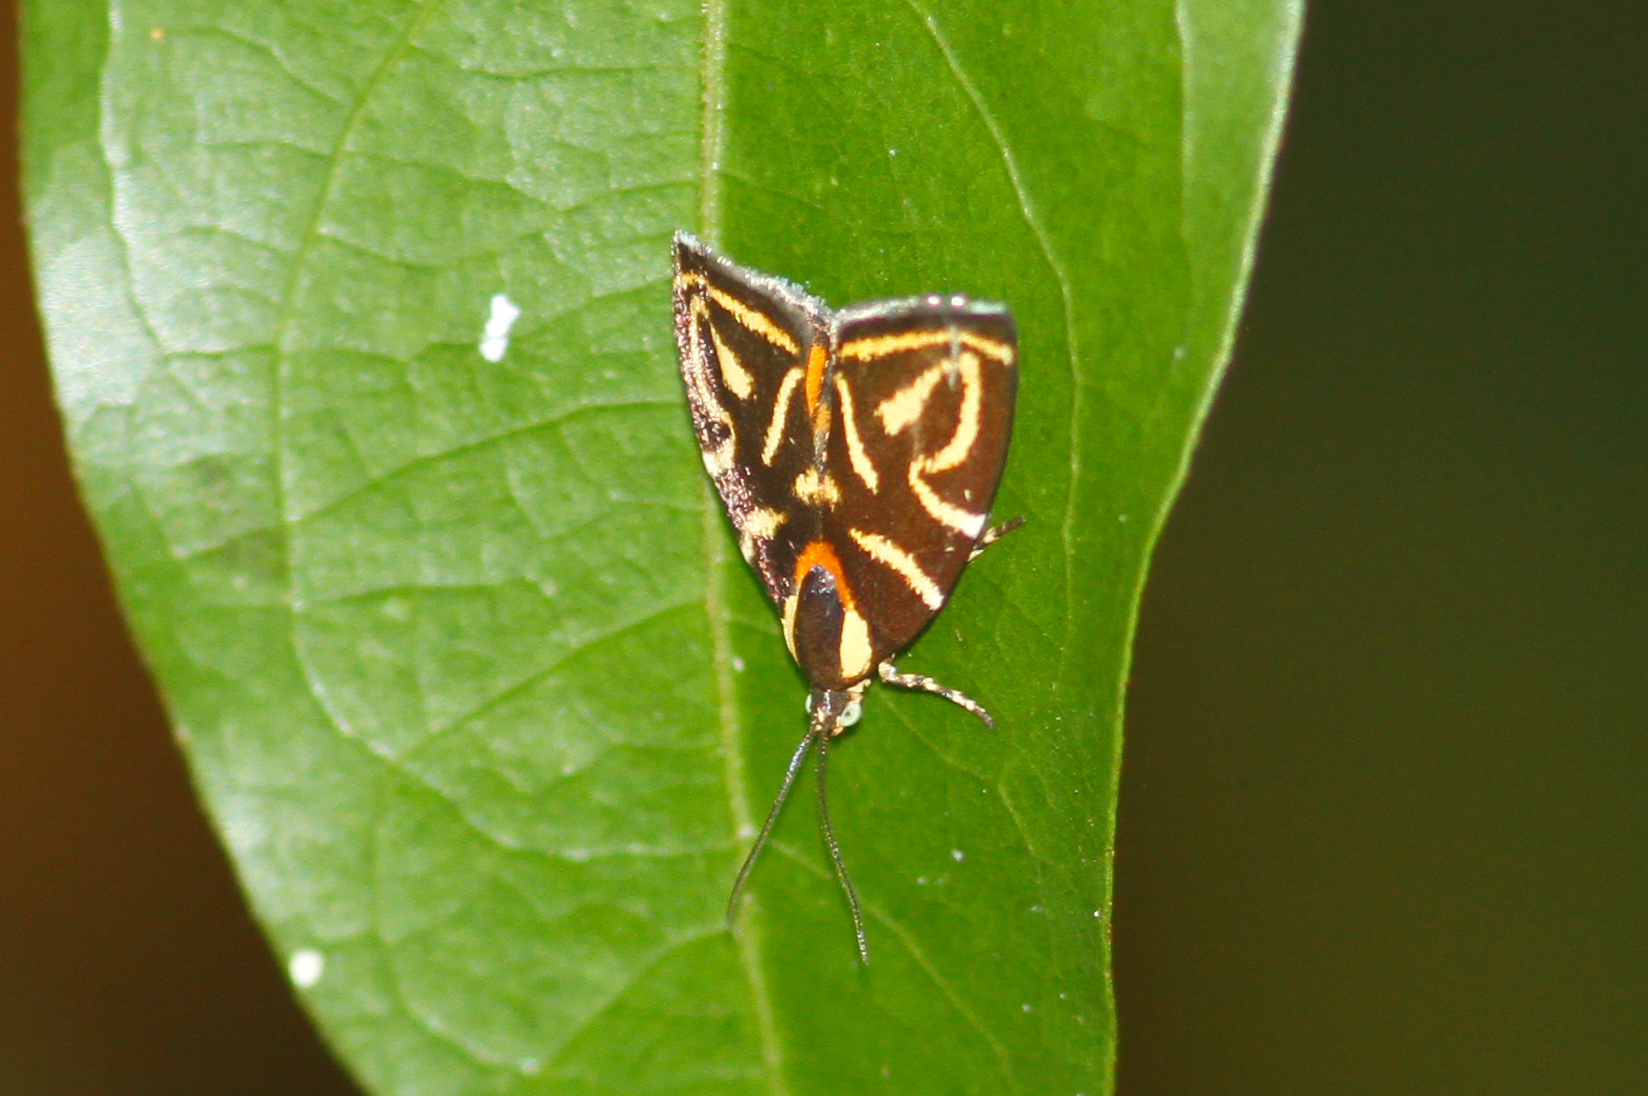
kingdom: Animalia
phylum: Arthropoda
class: Insecta
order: Lepidoptera
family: Choreutidae
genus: Anthophila
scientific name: Anthophila albertiana
